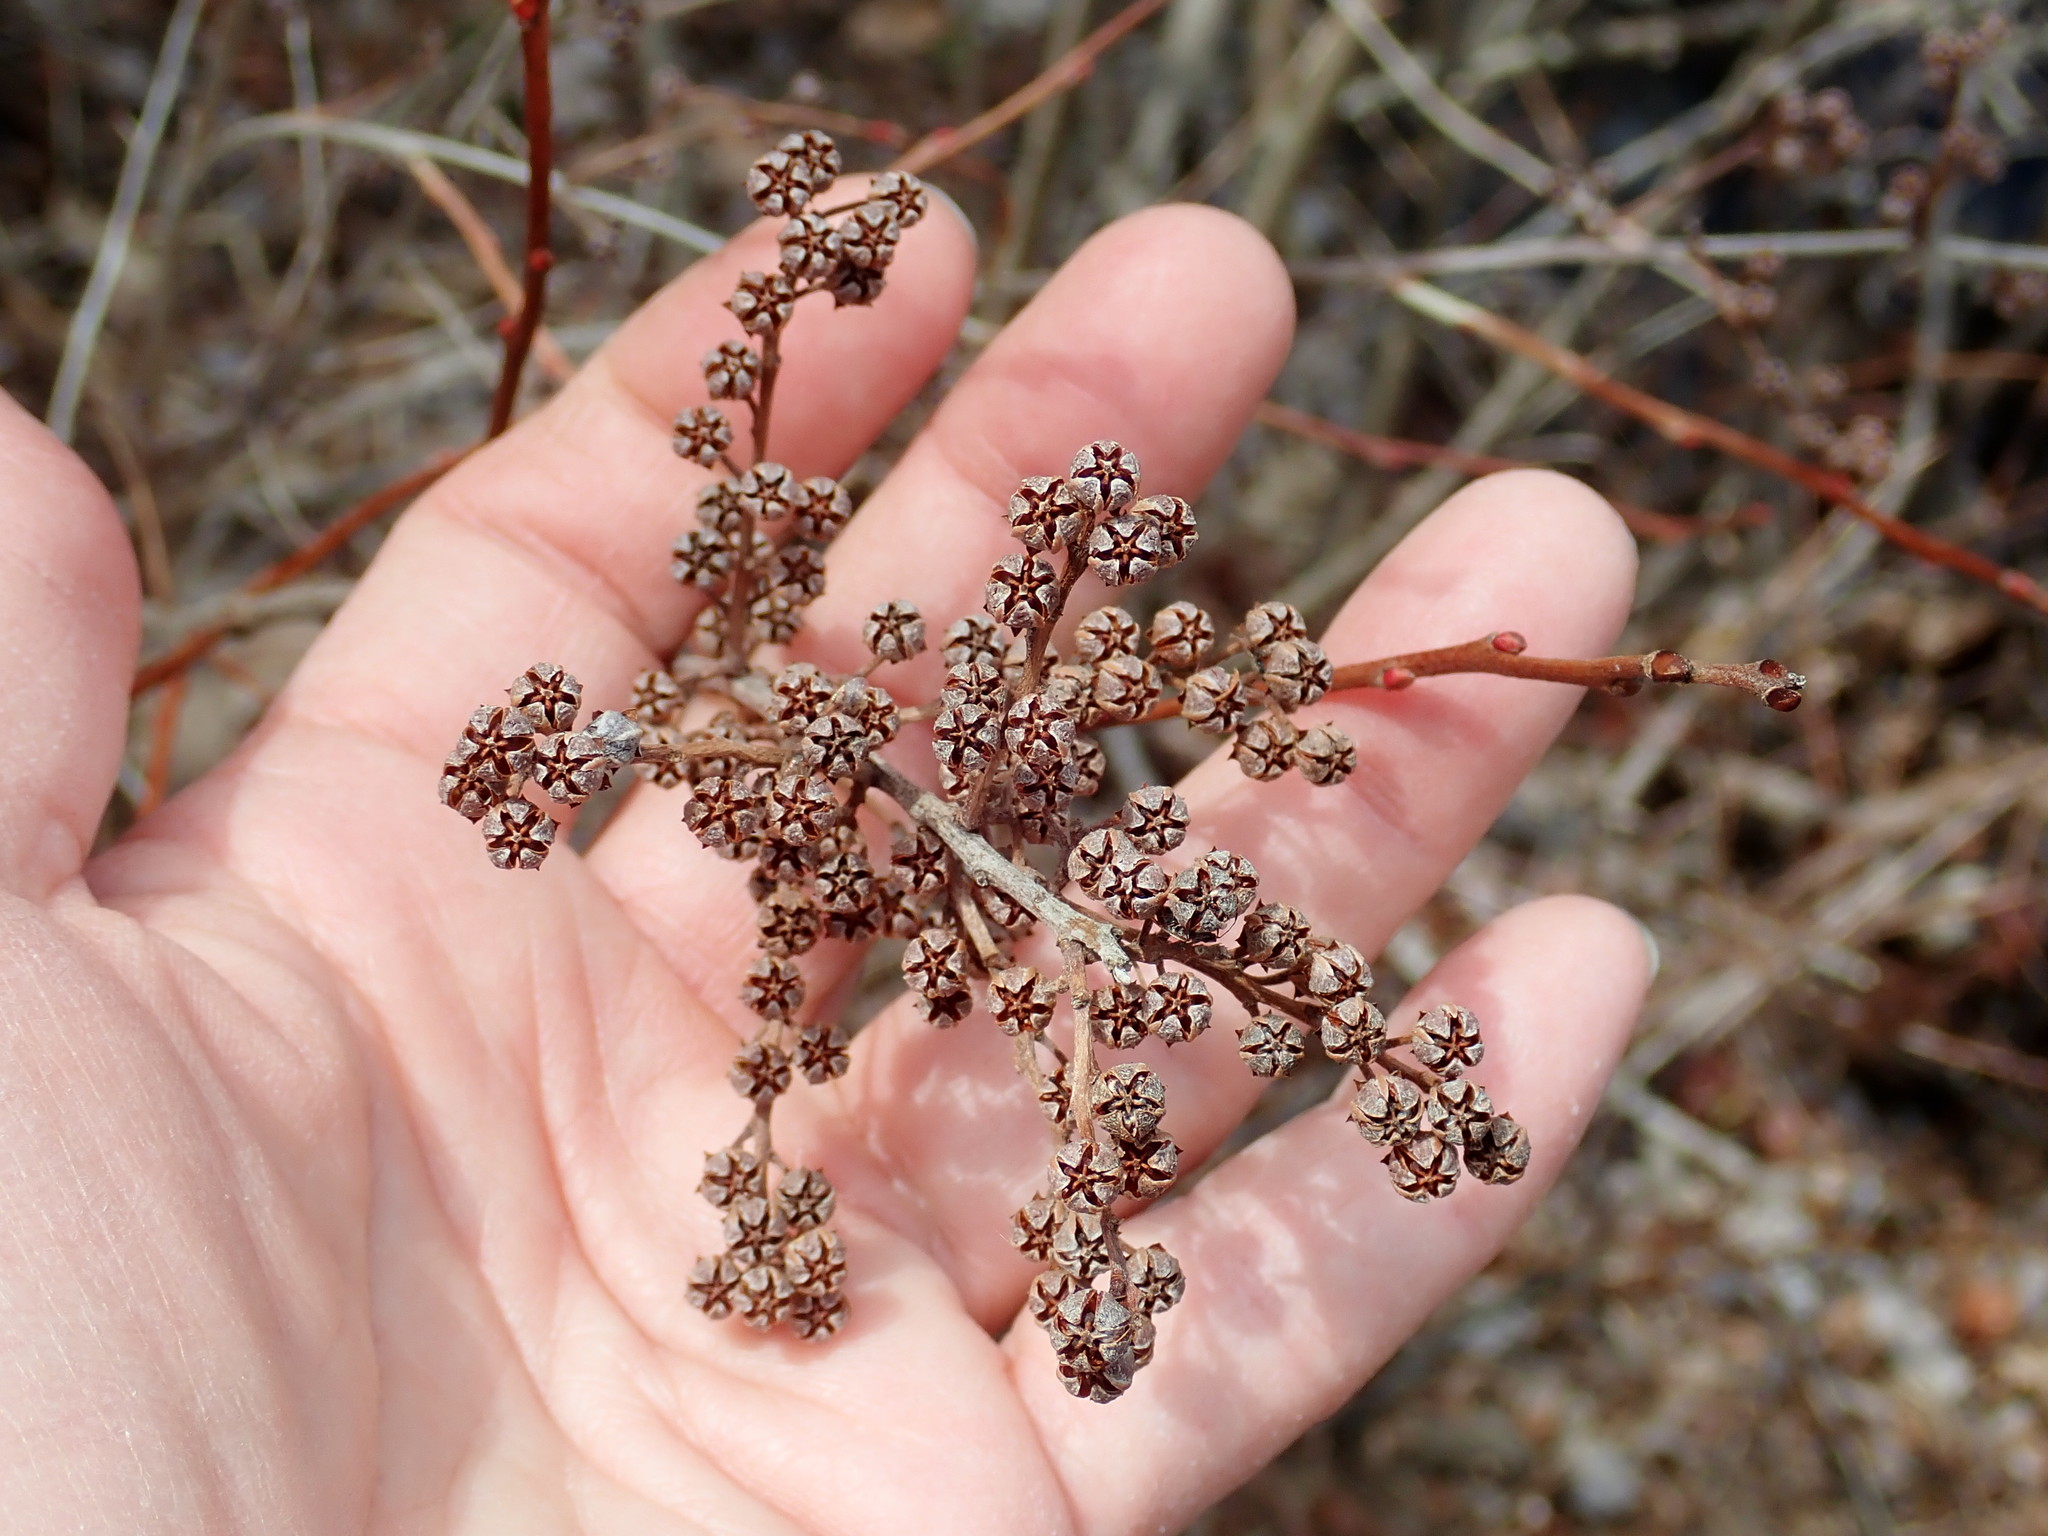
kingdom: Plantae
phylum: Tracheophyta
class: Magnoliopsida
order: Ericales
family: Ericaceae
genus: Lyonia
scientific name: Lyonia ligustrina
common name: Maleberry
